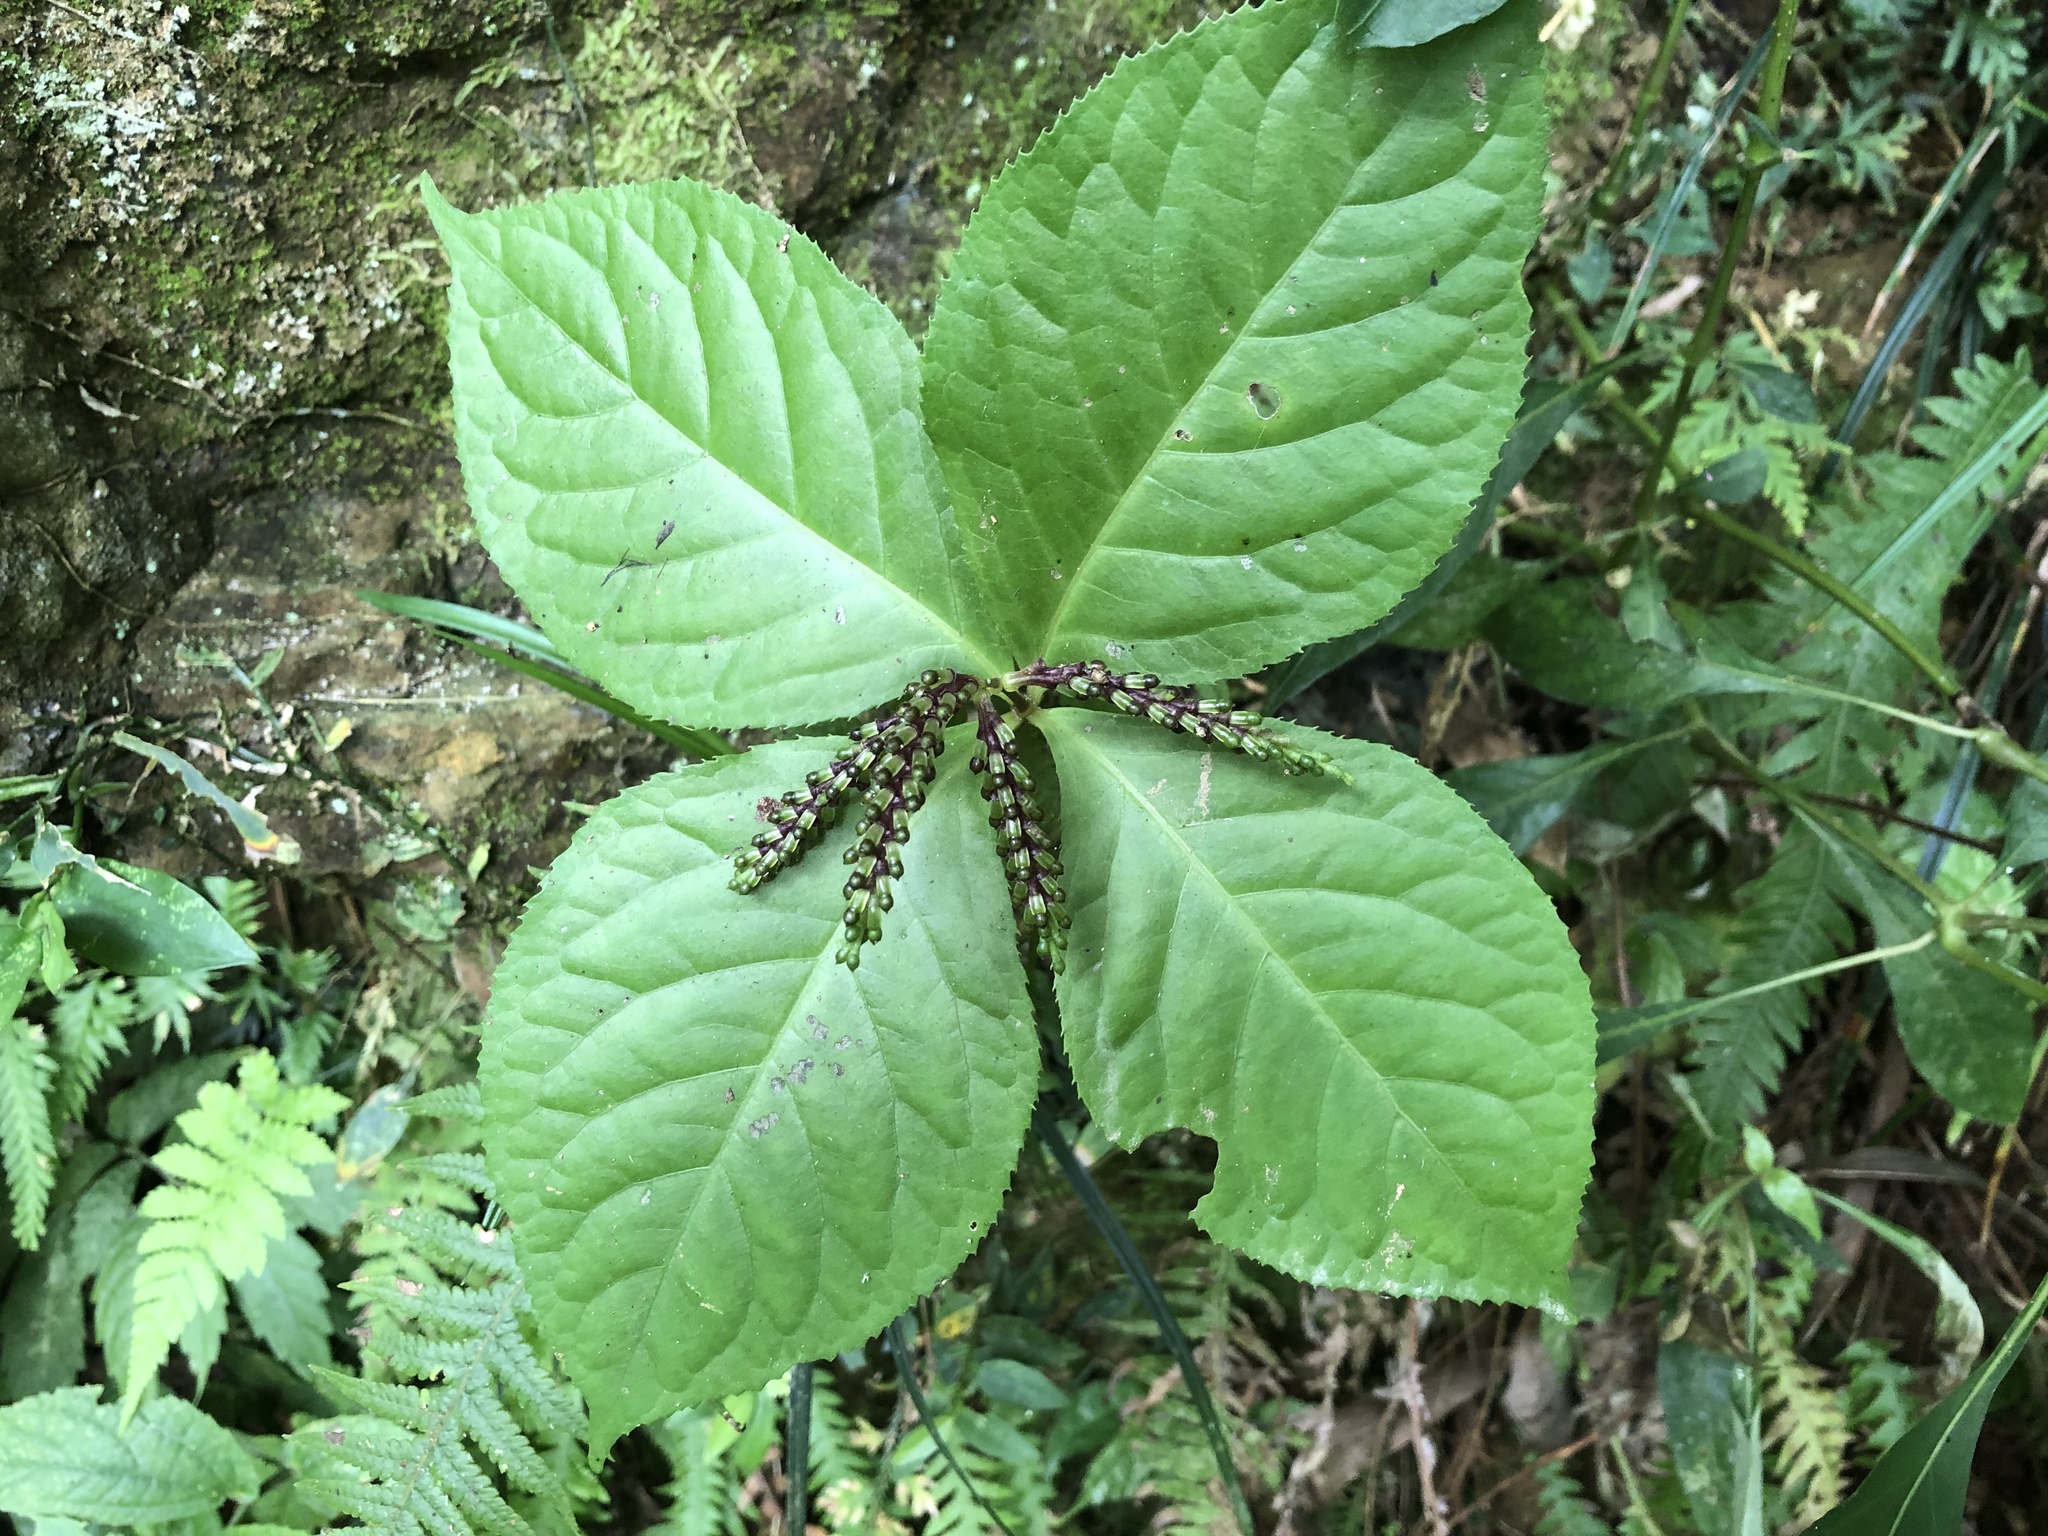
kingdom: Plantae
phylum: Tracheophyta
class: Magnoliopsida
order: Chloranthales
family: Chloranthaceae
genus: Chloranthus
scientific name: Chloranthus oldhamii
